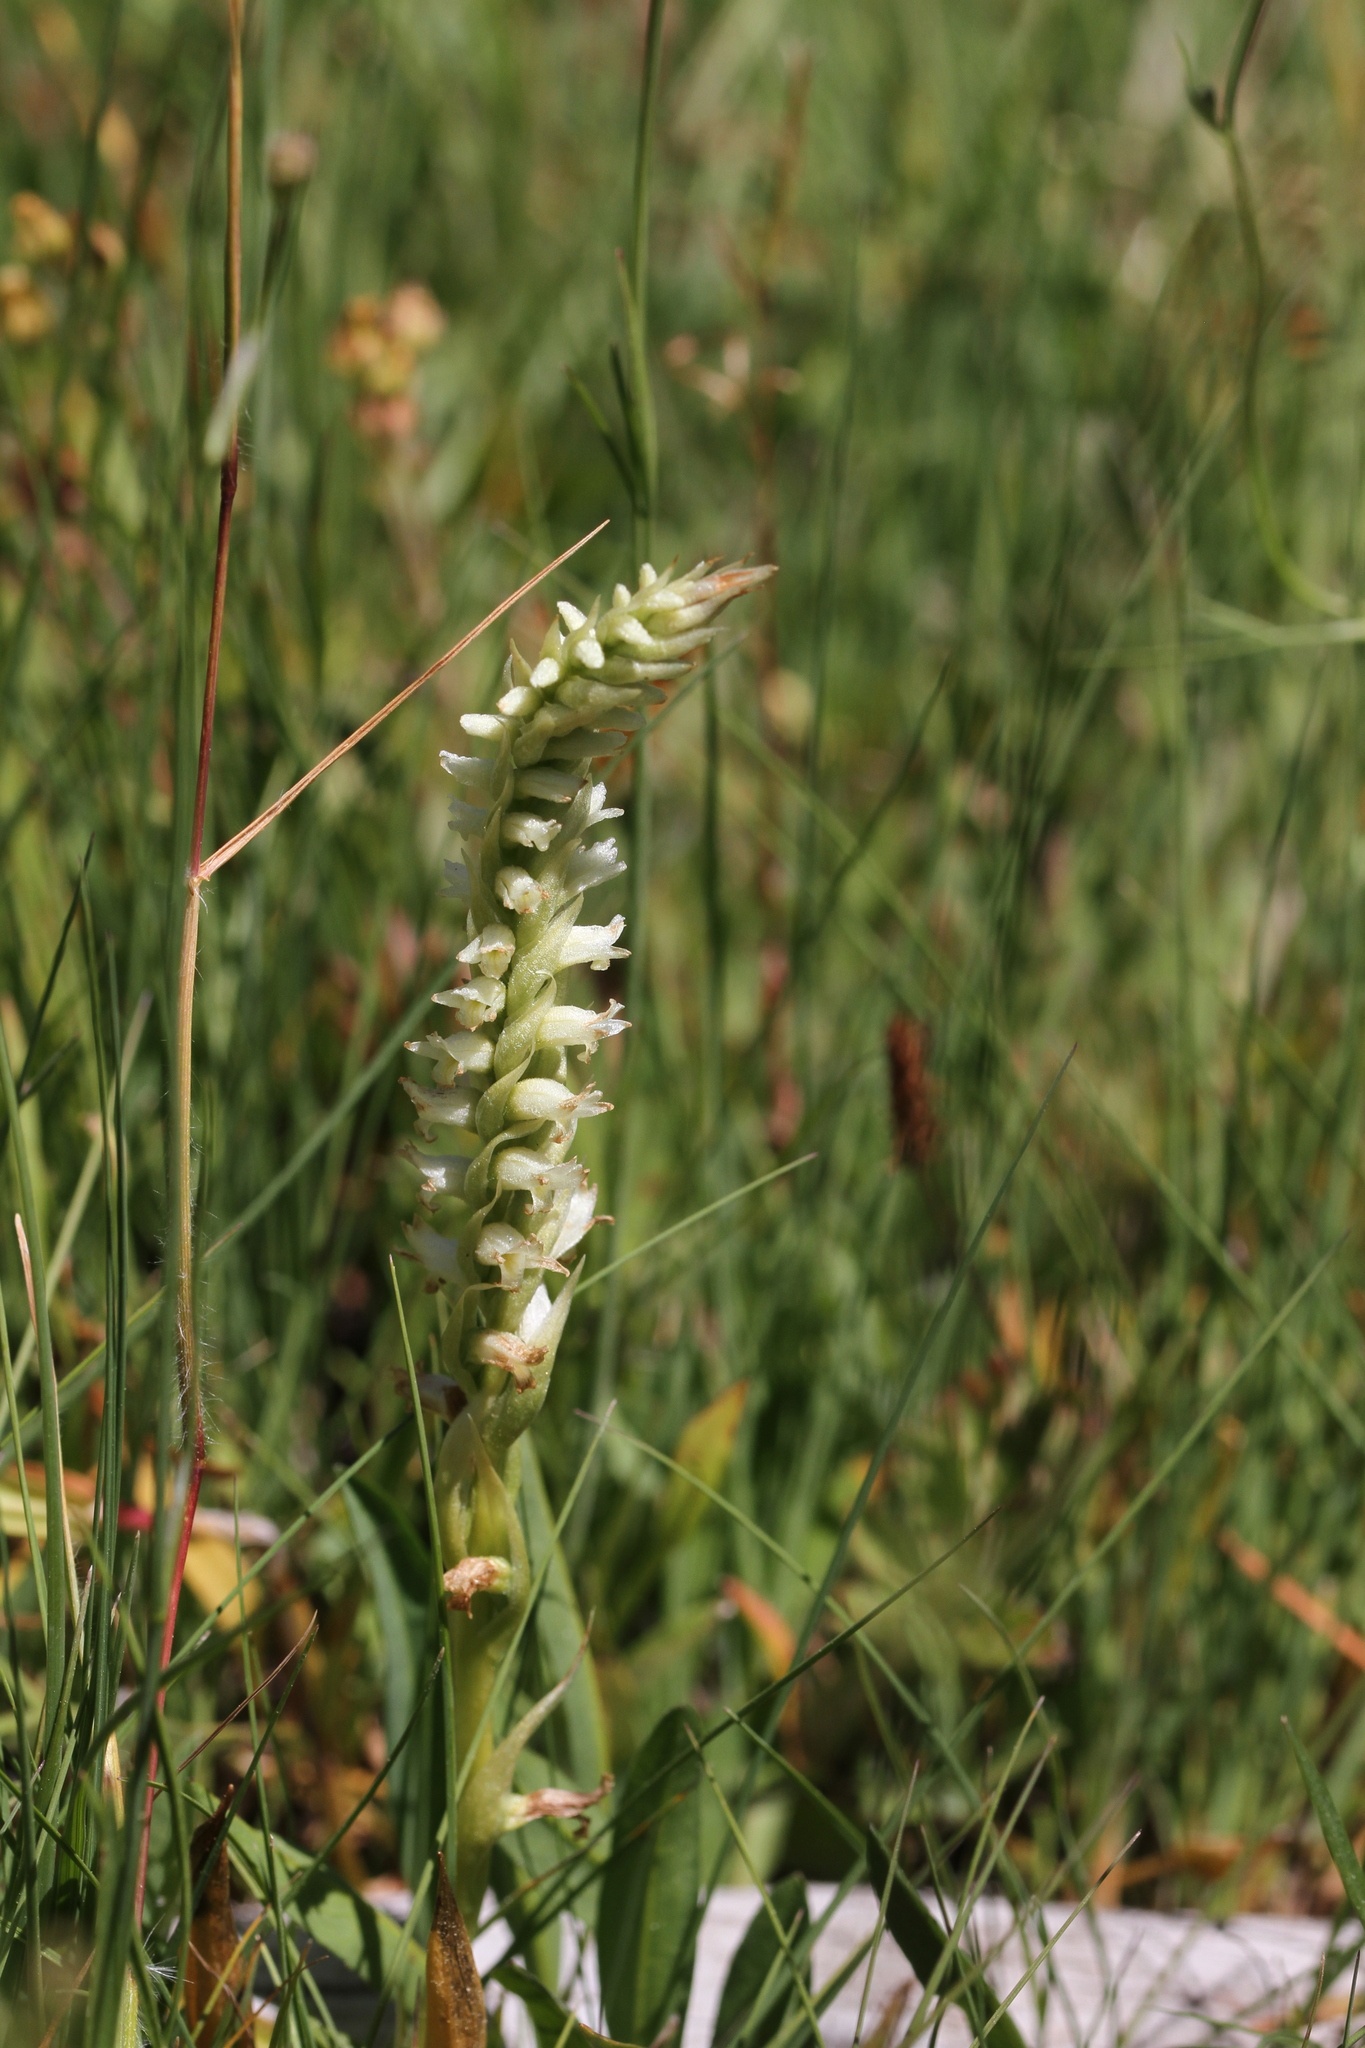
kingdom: Plantae
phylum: Tracheophyta
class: Liliopsida
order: Asparagales
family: Orchidaceae
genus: Spiranthes
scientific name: Spiranthes stellata
